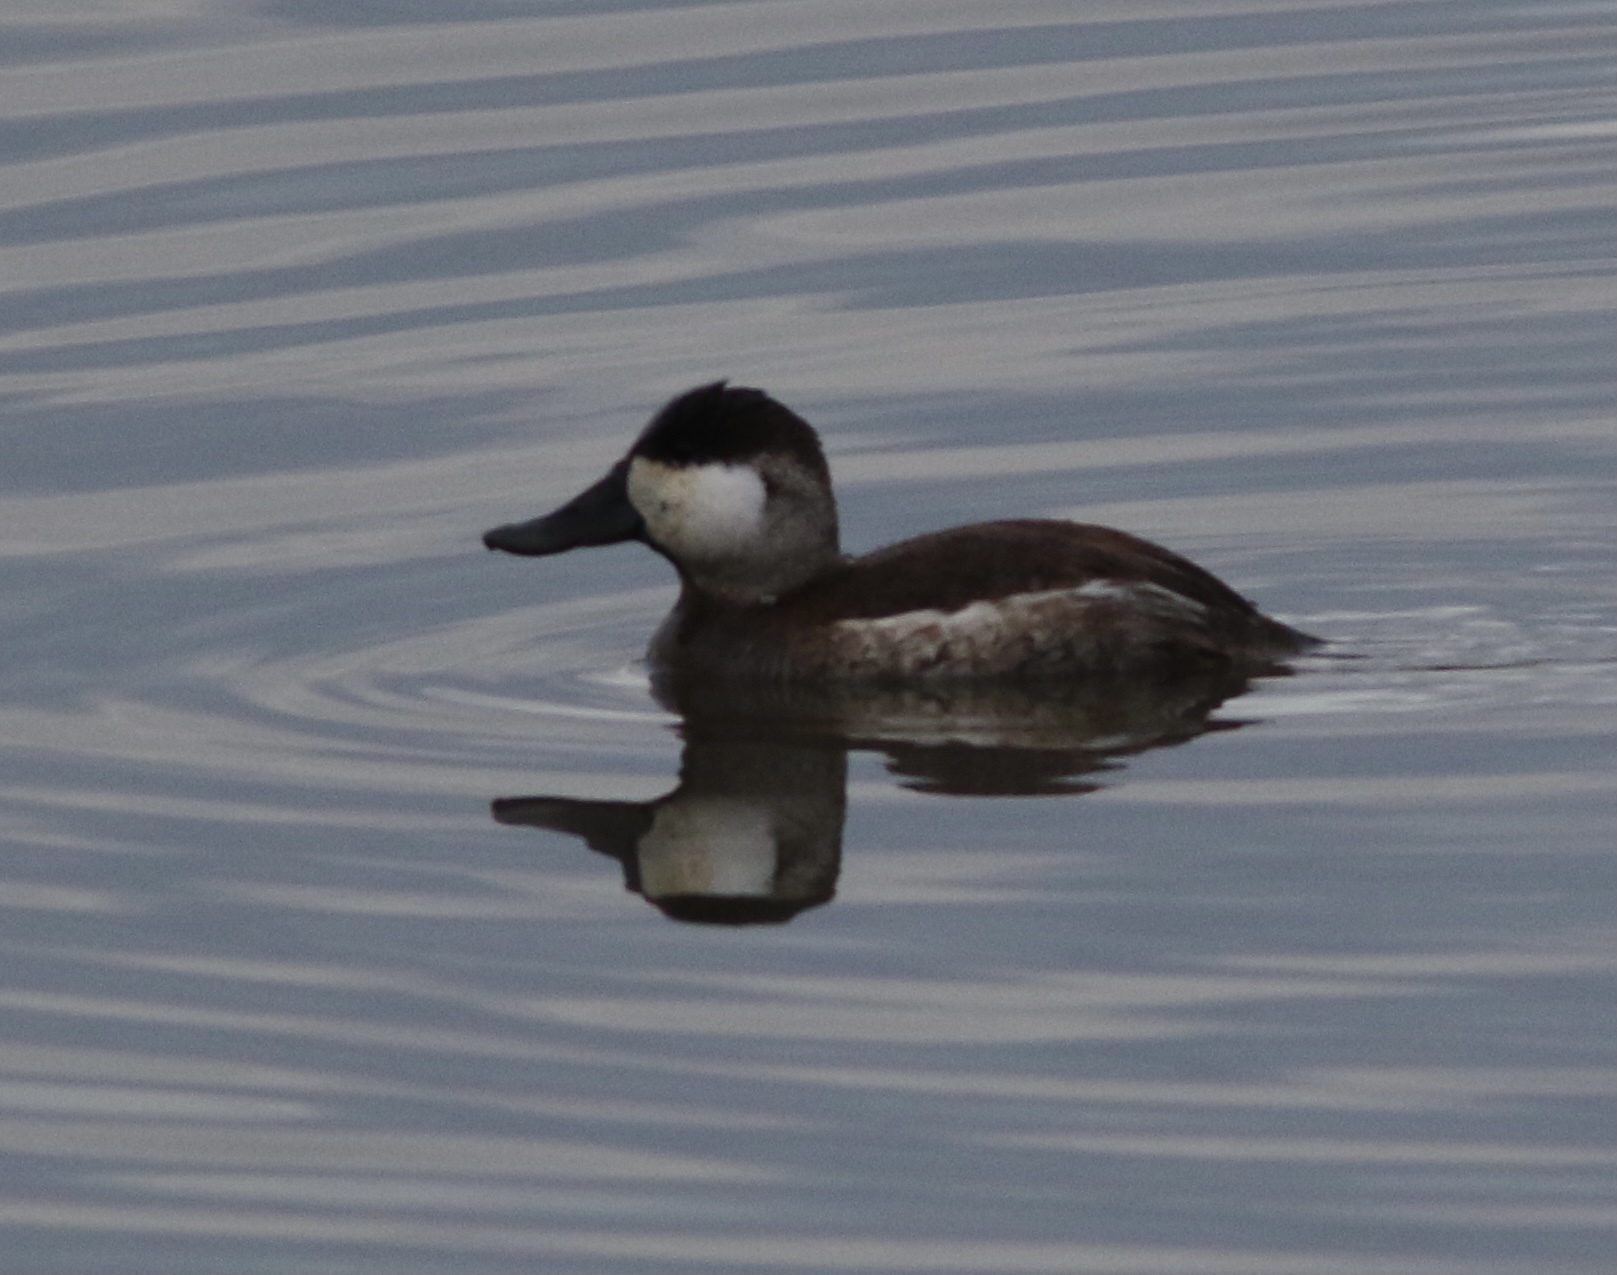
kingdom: Animalia
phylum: Chordata
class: Aves
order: Anseriformes
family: Anatidae
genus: Oxyura
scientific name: Oxyura jamaicensis
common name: Ruddy duck
